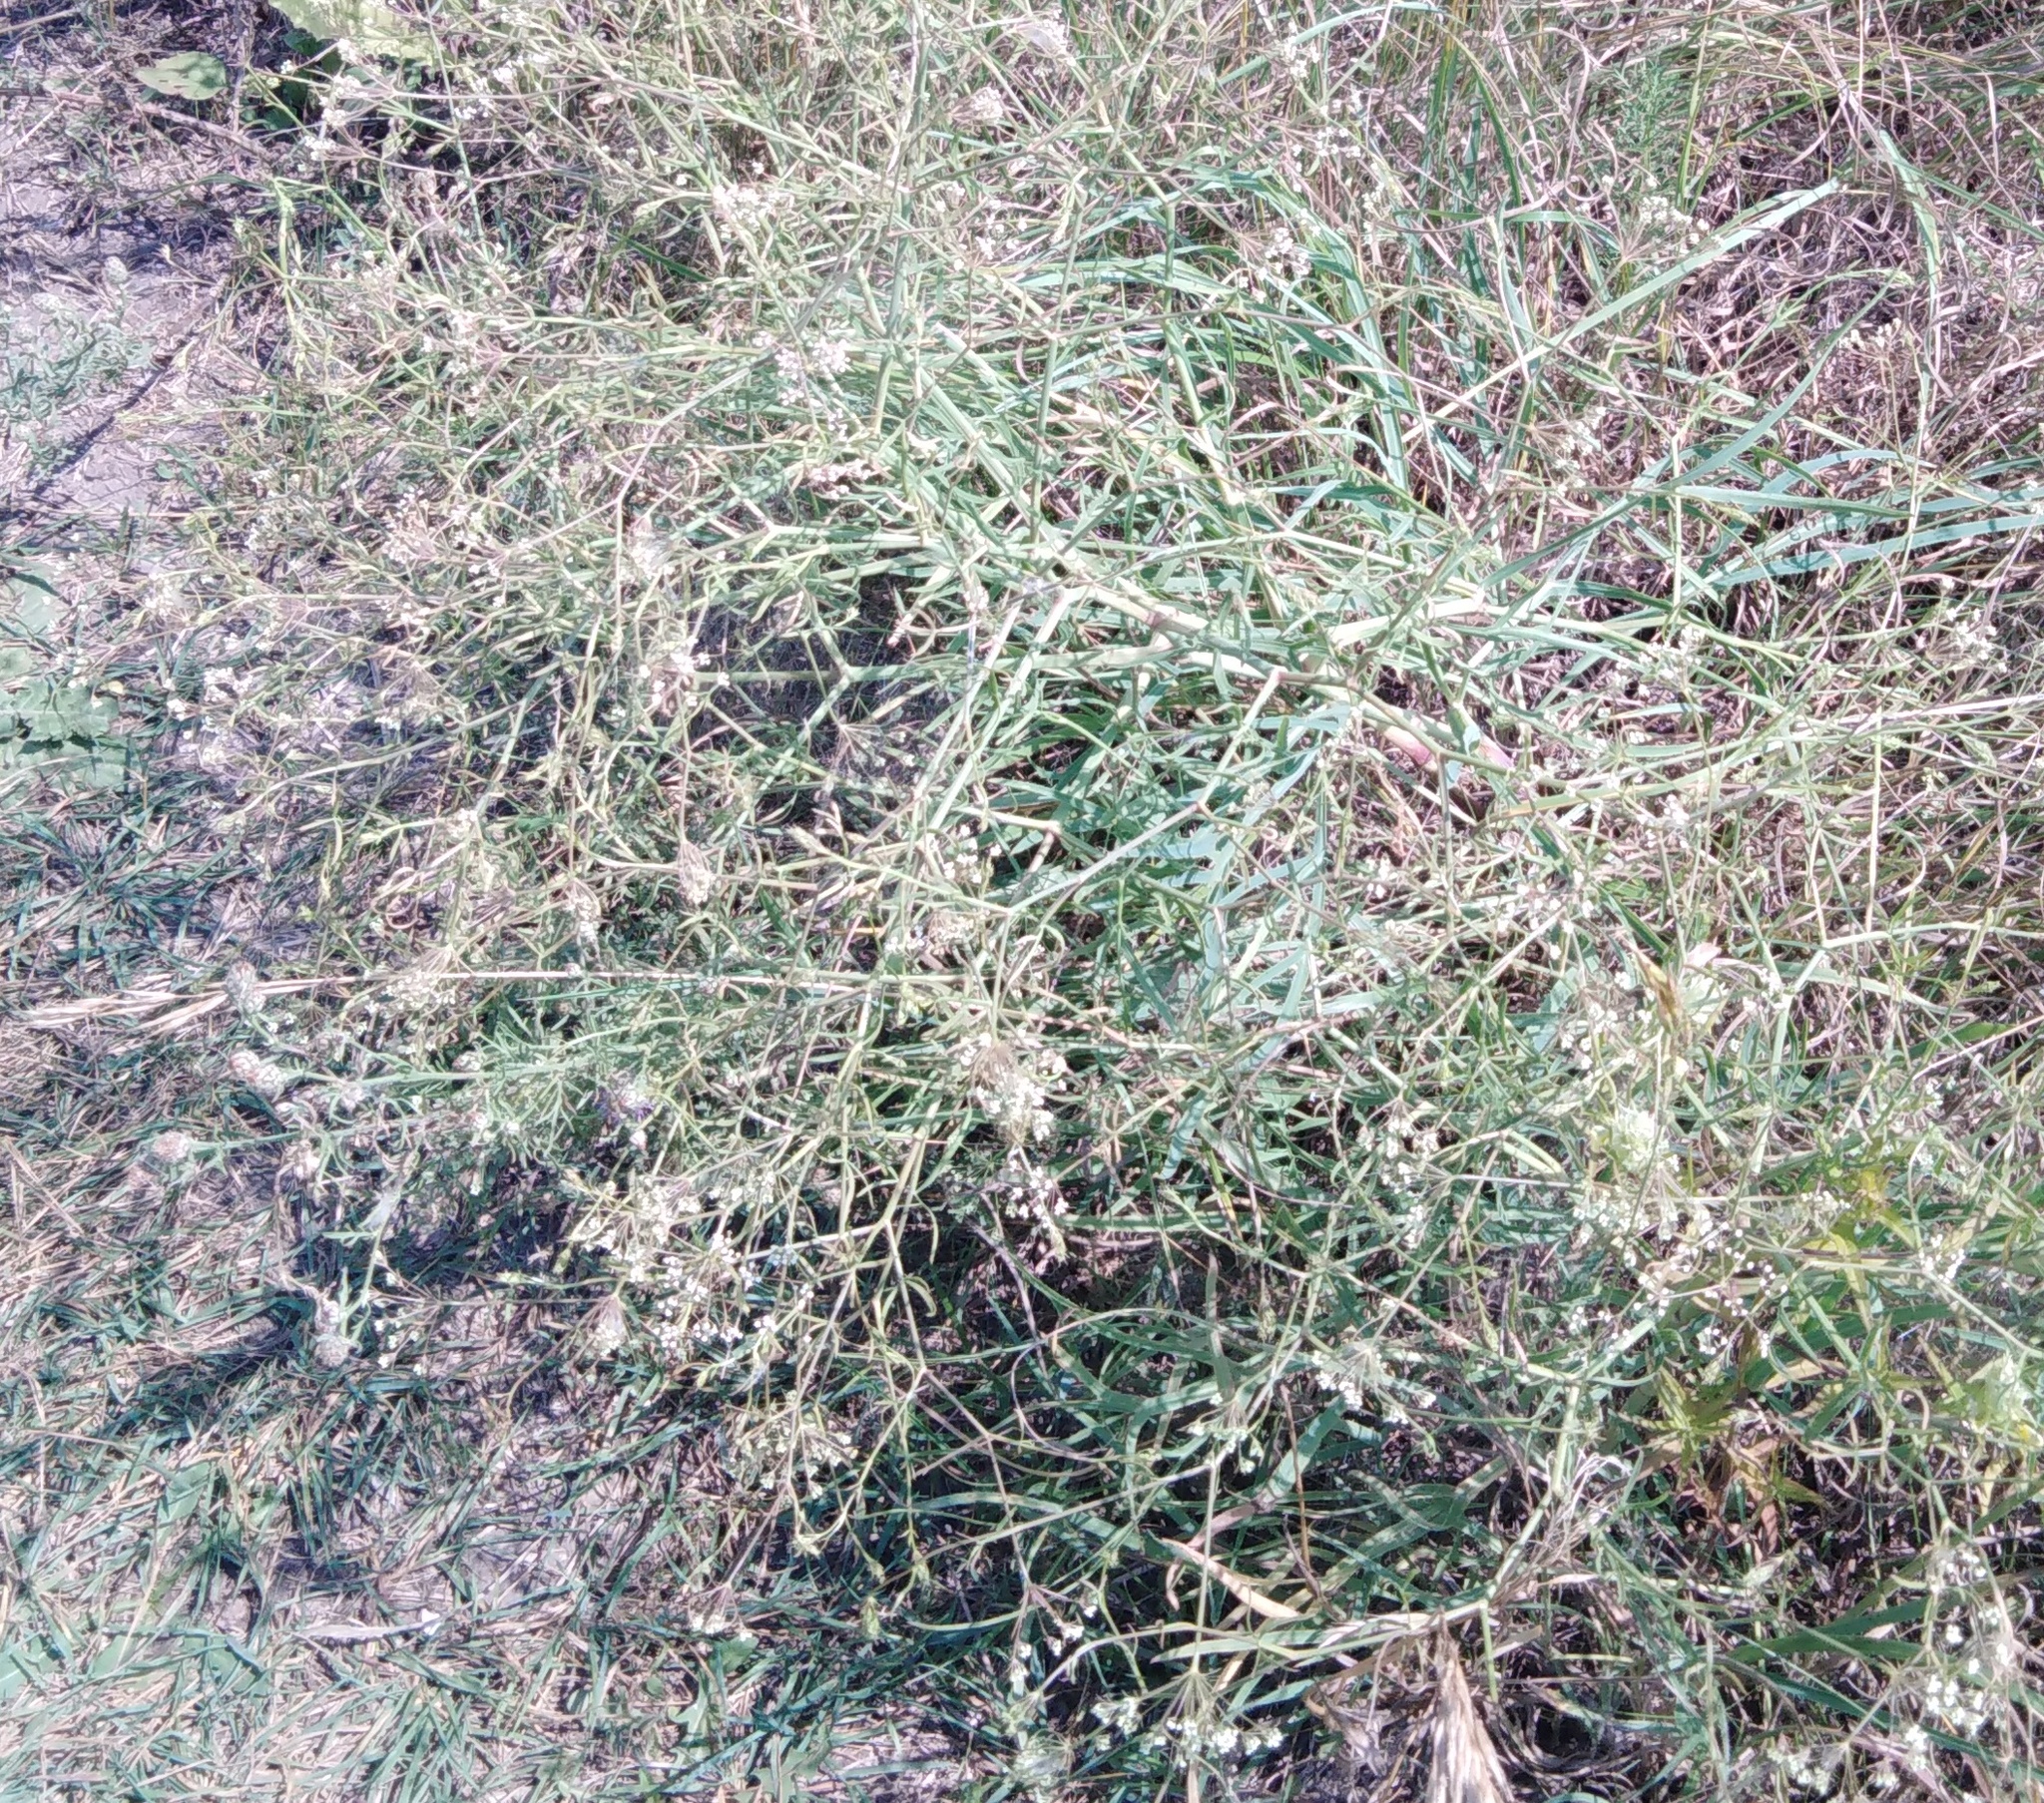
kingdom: Plantae
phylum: Tracheophyta
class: Magnoliopsida
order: Apiales
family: Apiaceae
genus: Falcaria
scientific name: Falcaria vulgaris
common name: Longleaf
